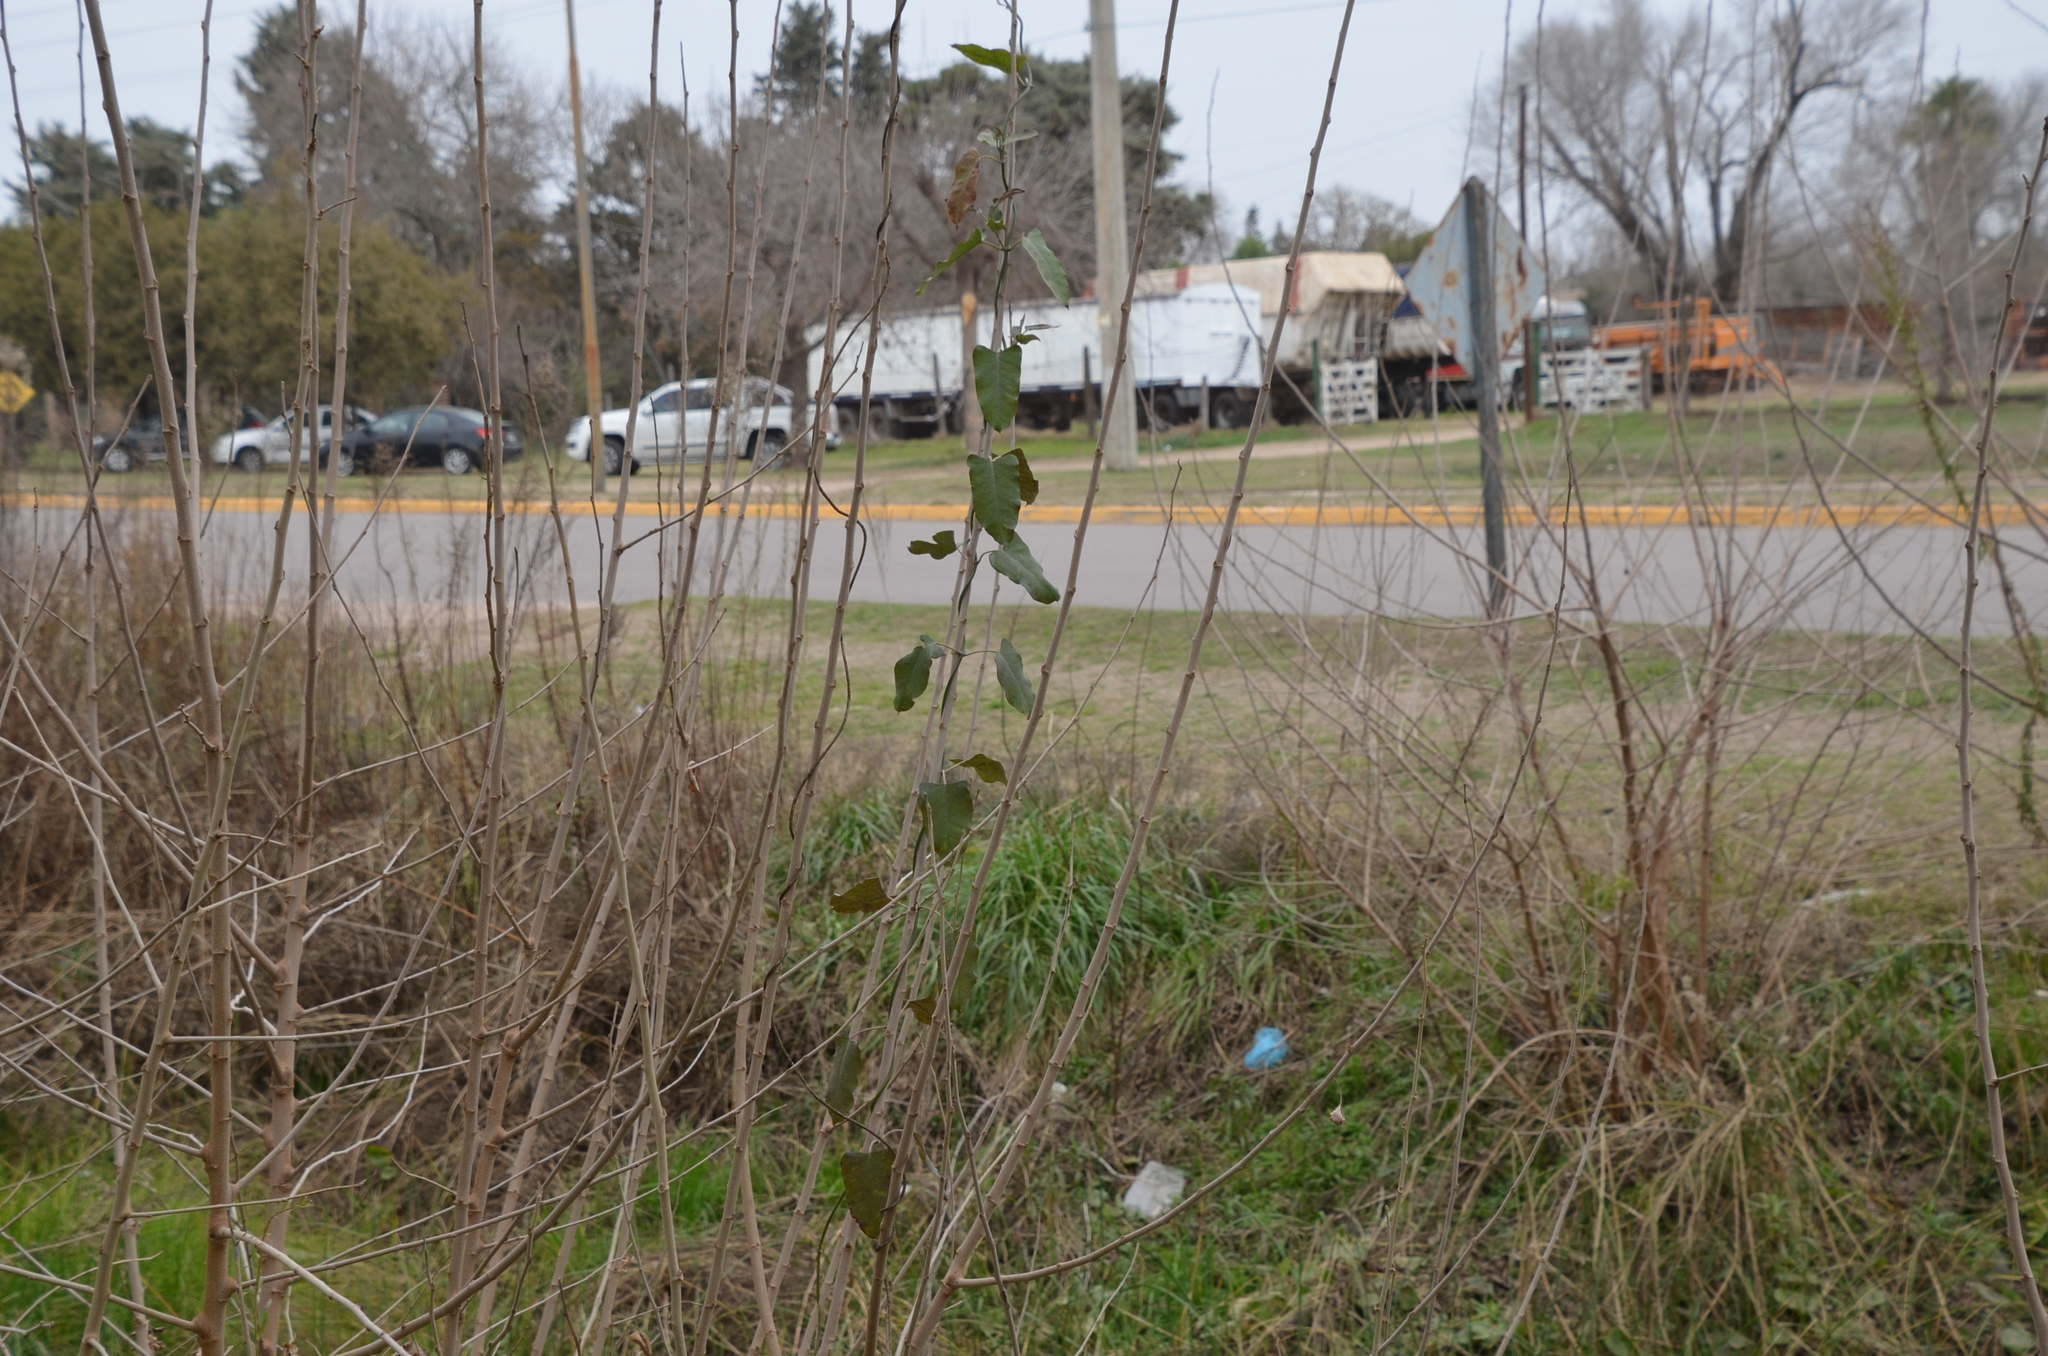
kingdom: Plantae
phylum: Tracheophyta
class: Magnoliopsida
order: Gentianales
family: Apocynaceae
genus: Araujia
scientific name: Araujia sericifera
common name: White bladderflower
